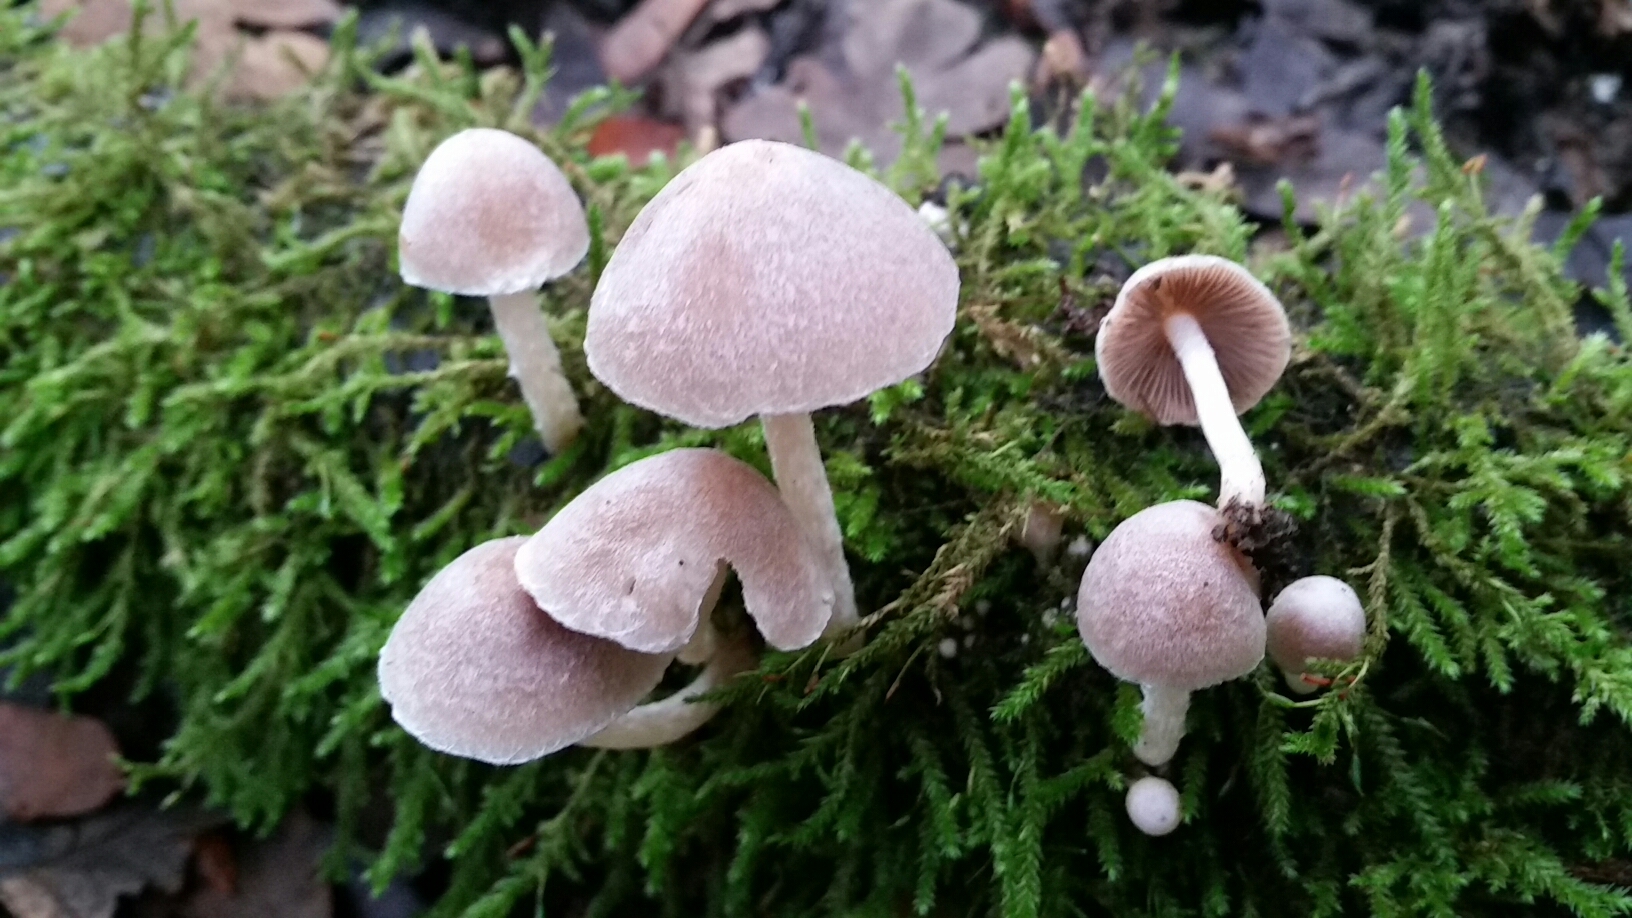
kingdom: Fungi
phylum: Basidiomycota
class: Agaricomycetes
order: Agaricales
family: Psathyrellaceae
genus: Coprinopsis
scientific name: Coprinopsis canoceps
